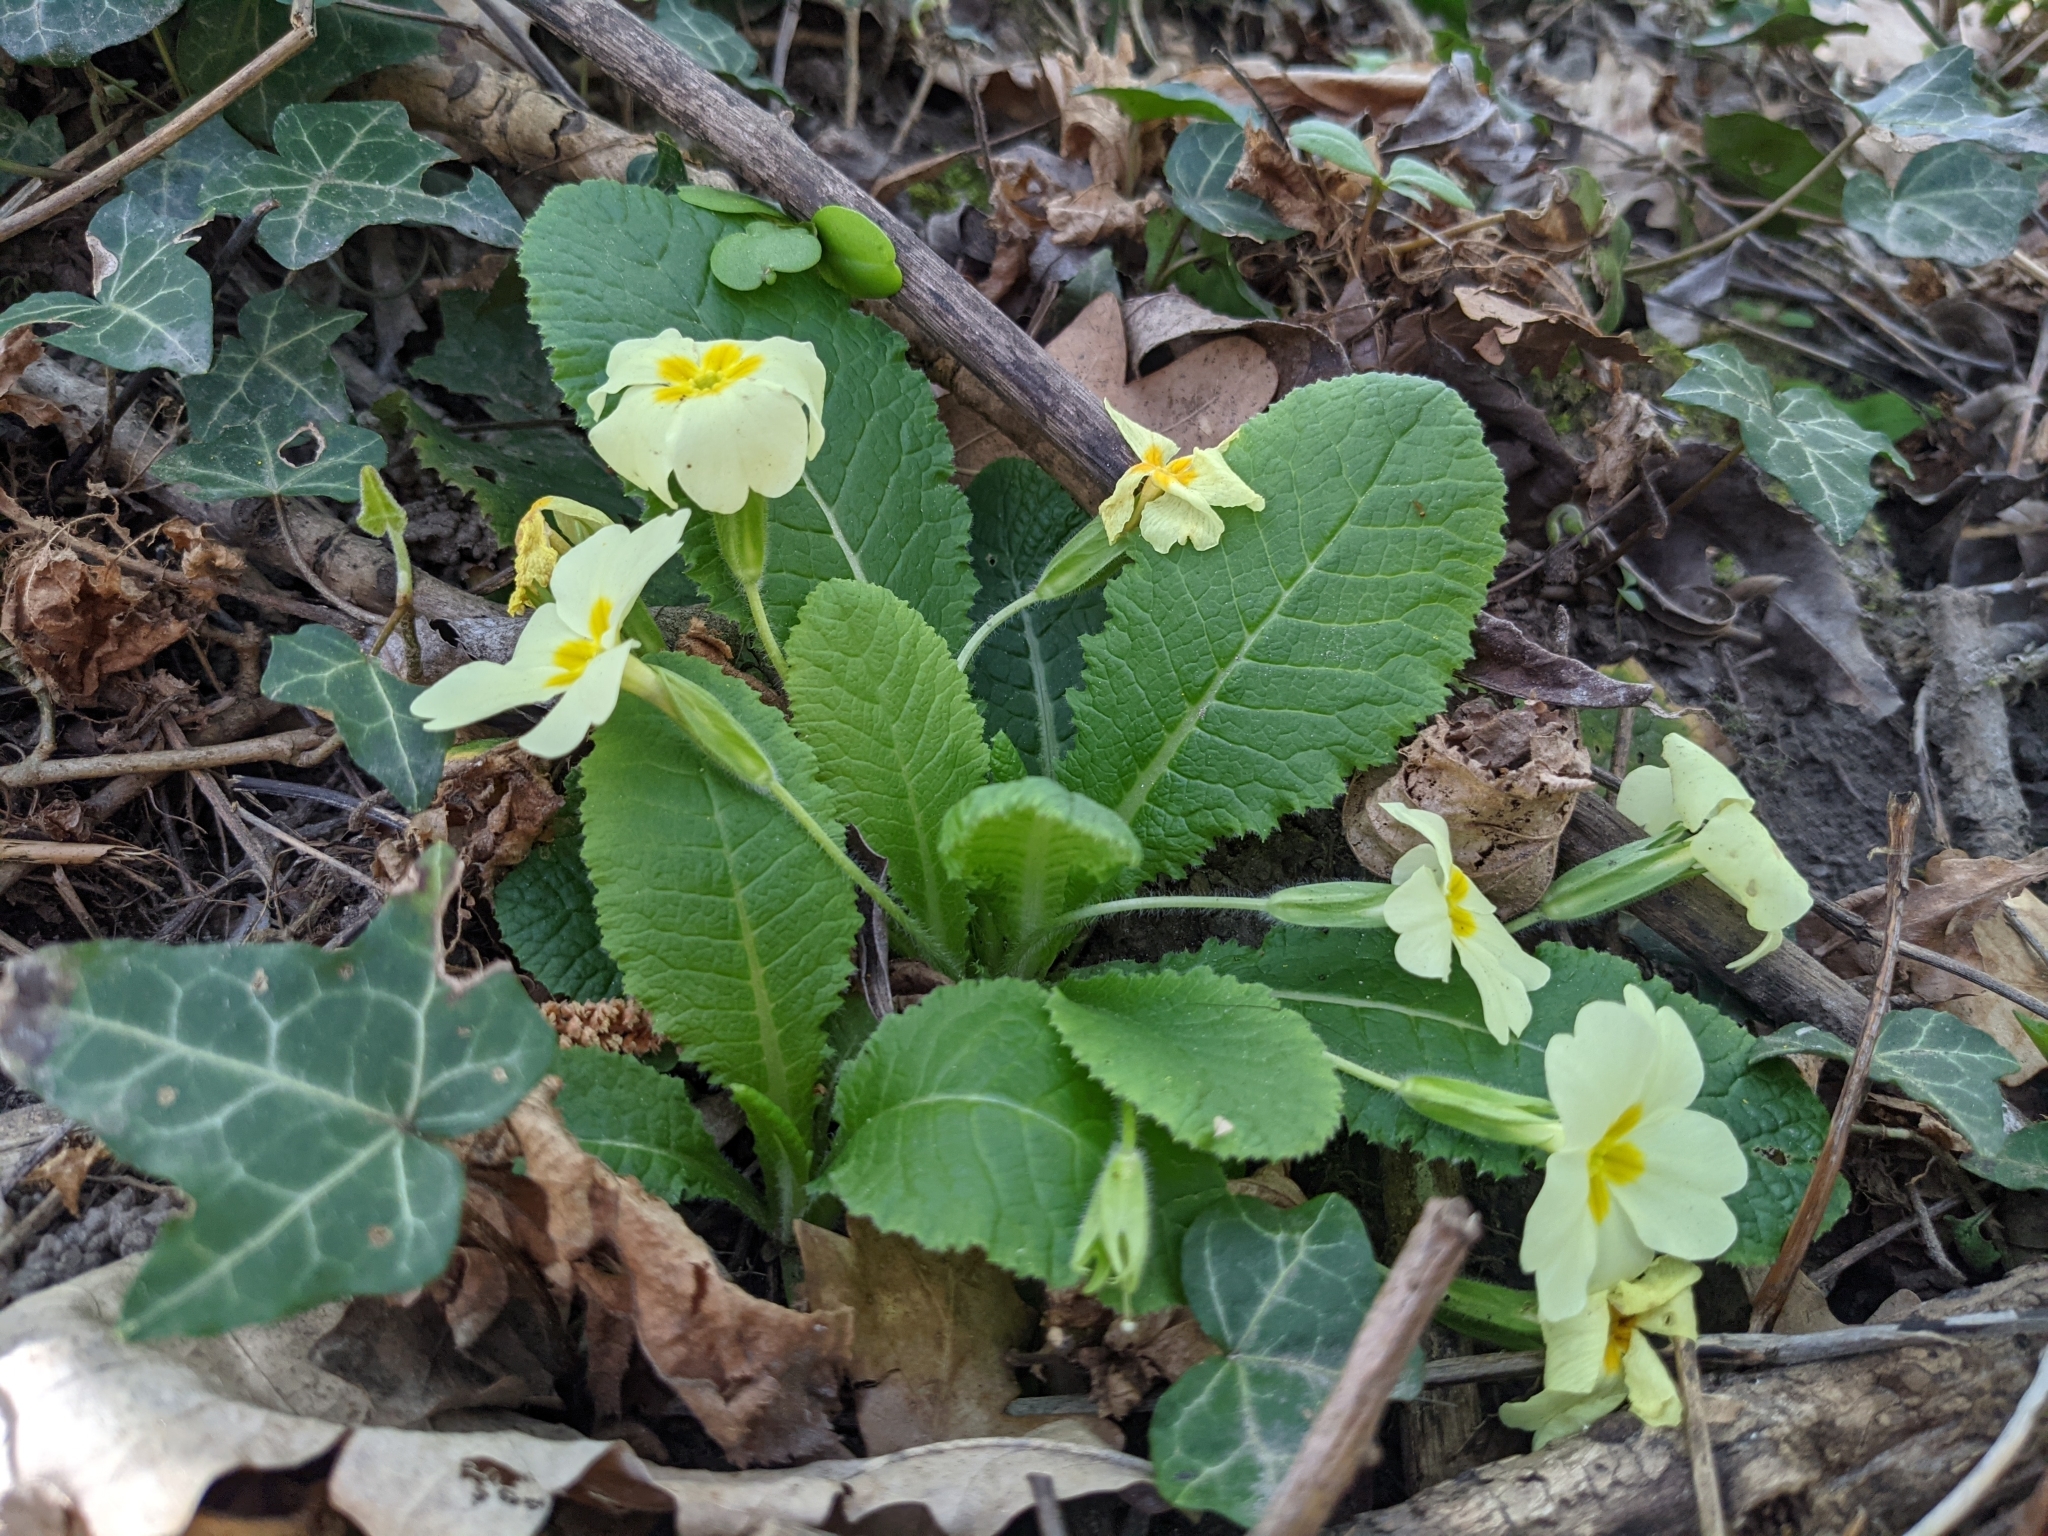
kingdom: Plantae
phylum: Tracheophyta
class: Magnoliopsida
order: Ericales
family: Primulaceae
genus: Primula
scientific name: Primula vulgaris
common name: Primrose
